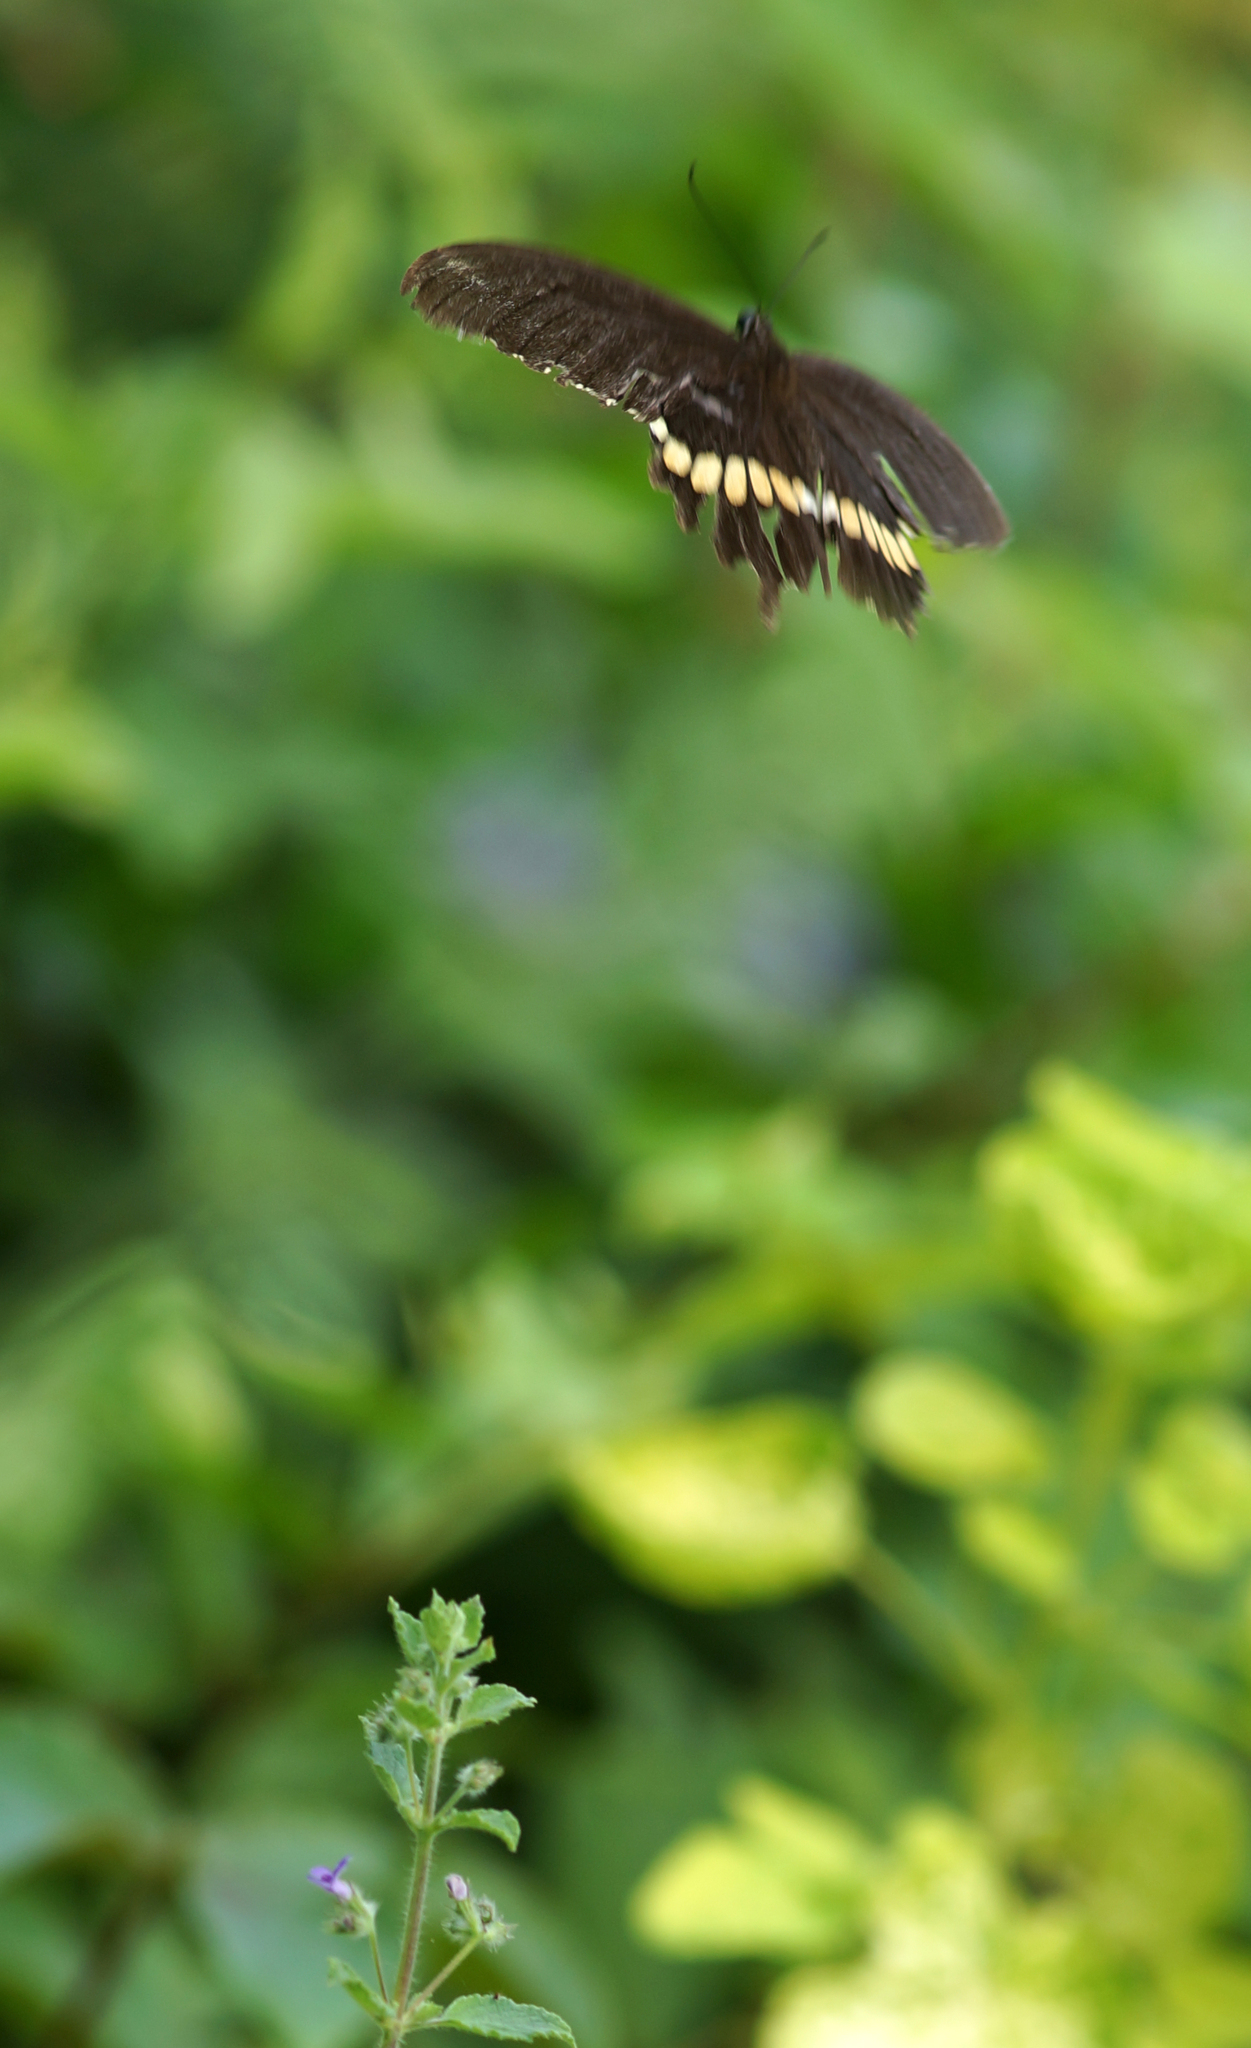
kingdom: Animalia
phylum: Arthropoda
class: Insecta
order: Lepidoptera
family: Papilionidae
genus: Papilio
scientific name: Papilio polytes
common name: Common mormon
